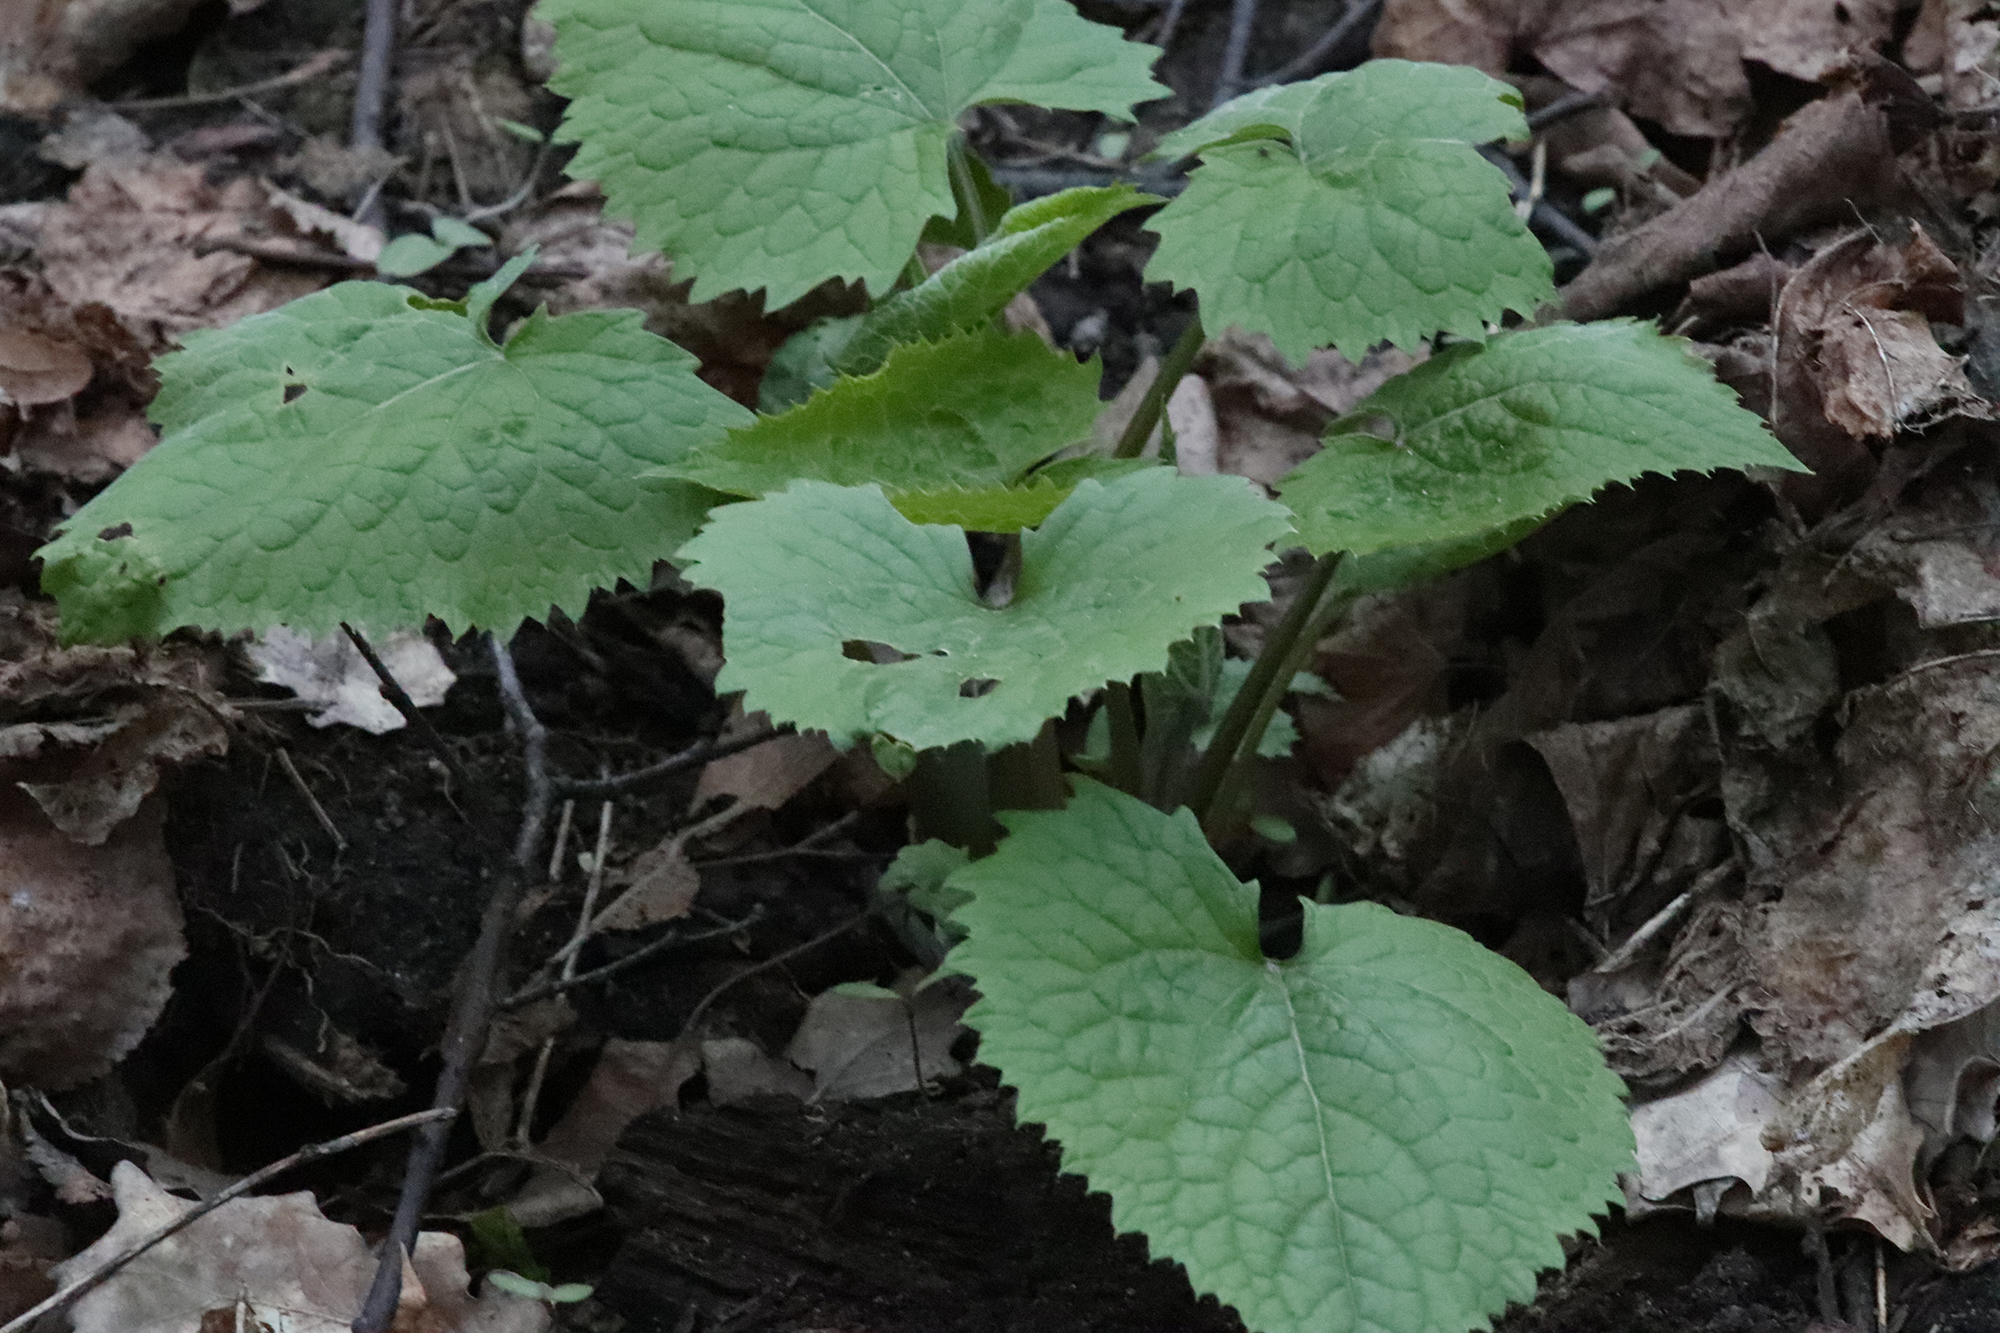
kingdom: Plantae
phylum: Tracheophyta
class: Magnoliopsida
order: Brassicales
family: Brassicaceae
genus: Lunaria
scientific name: Lunaria rediviva
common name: Perennial honesty
